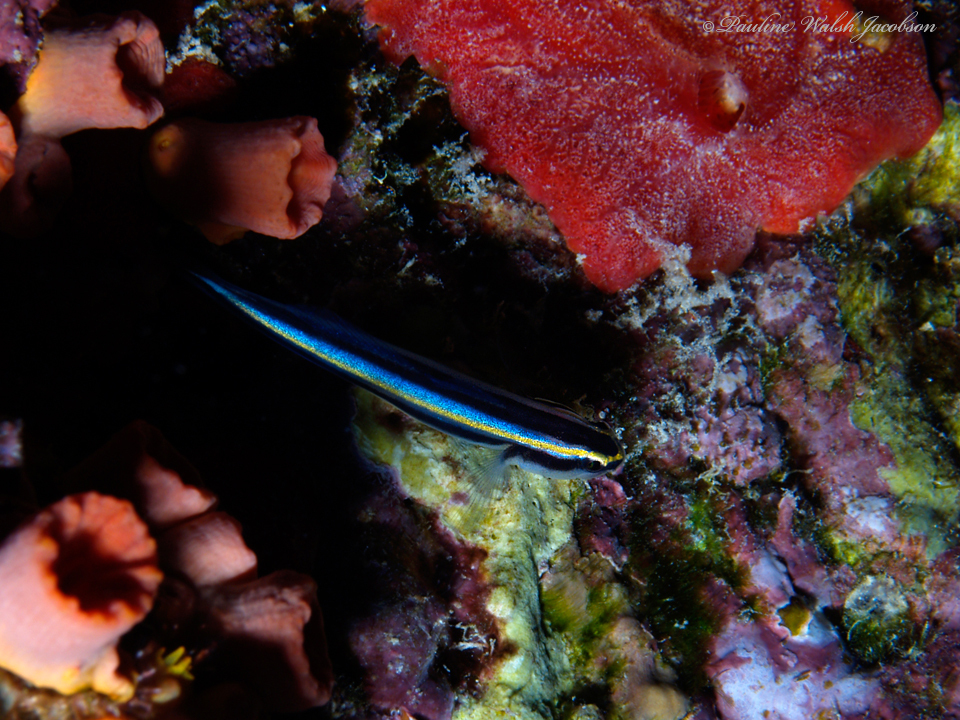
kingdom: Animalia
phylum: Chordata
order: Perciformes
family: Gobiidae
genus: Elacatinus
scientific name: Elacatinus evelynae
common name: Sharknose goby
